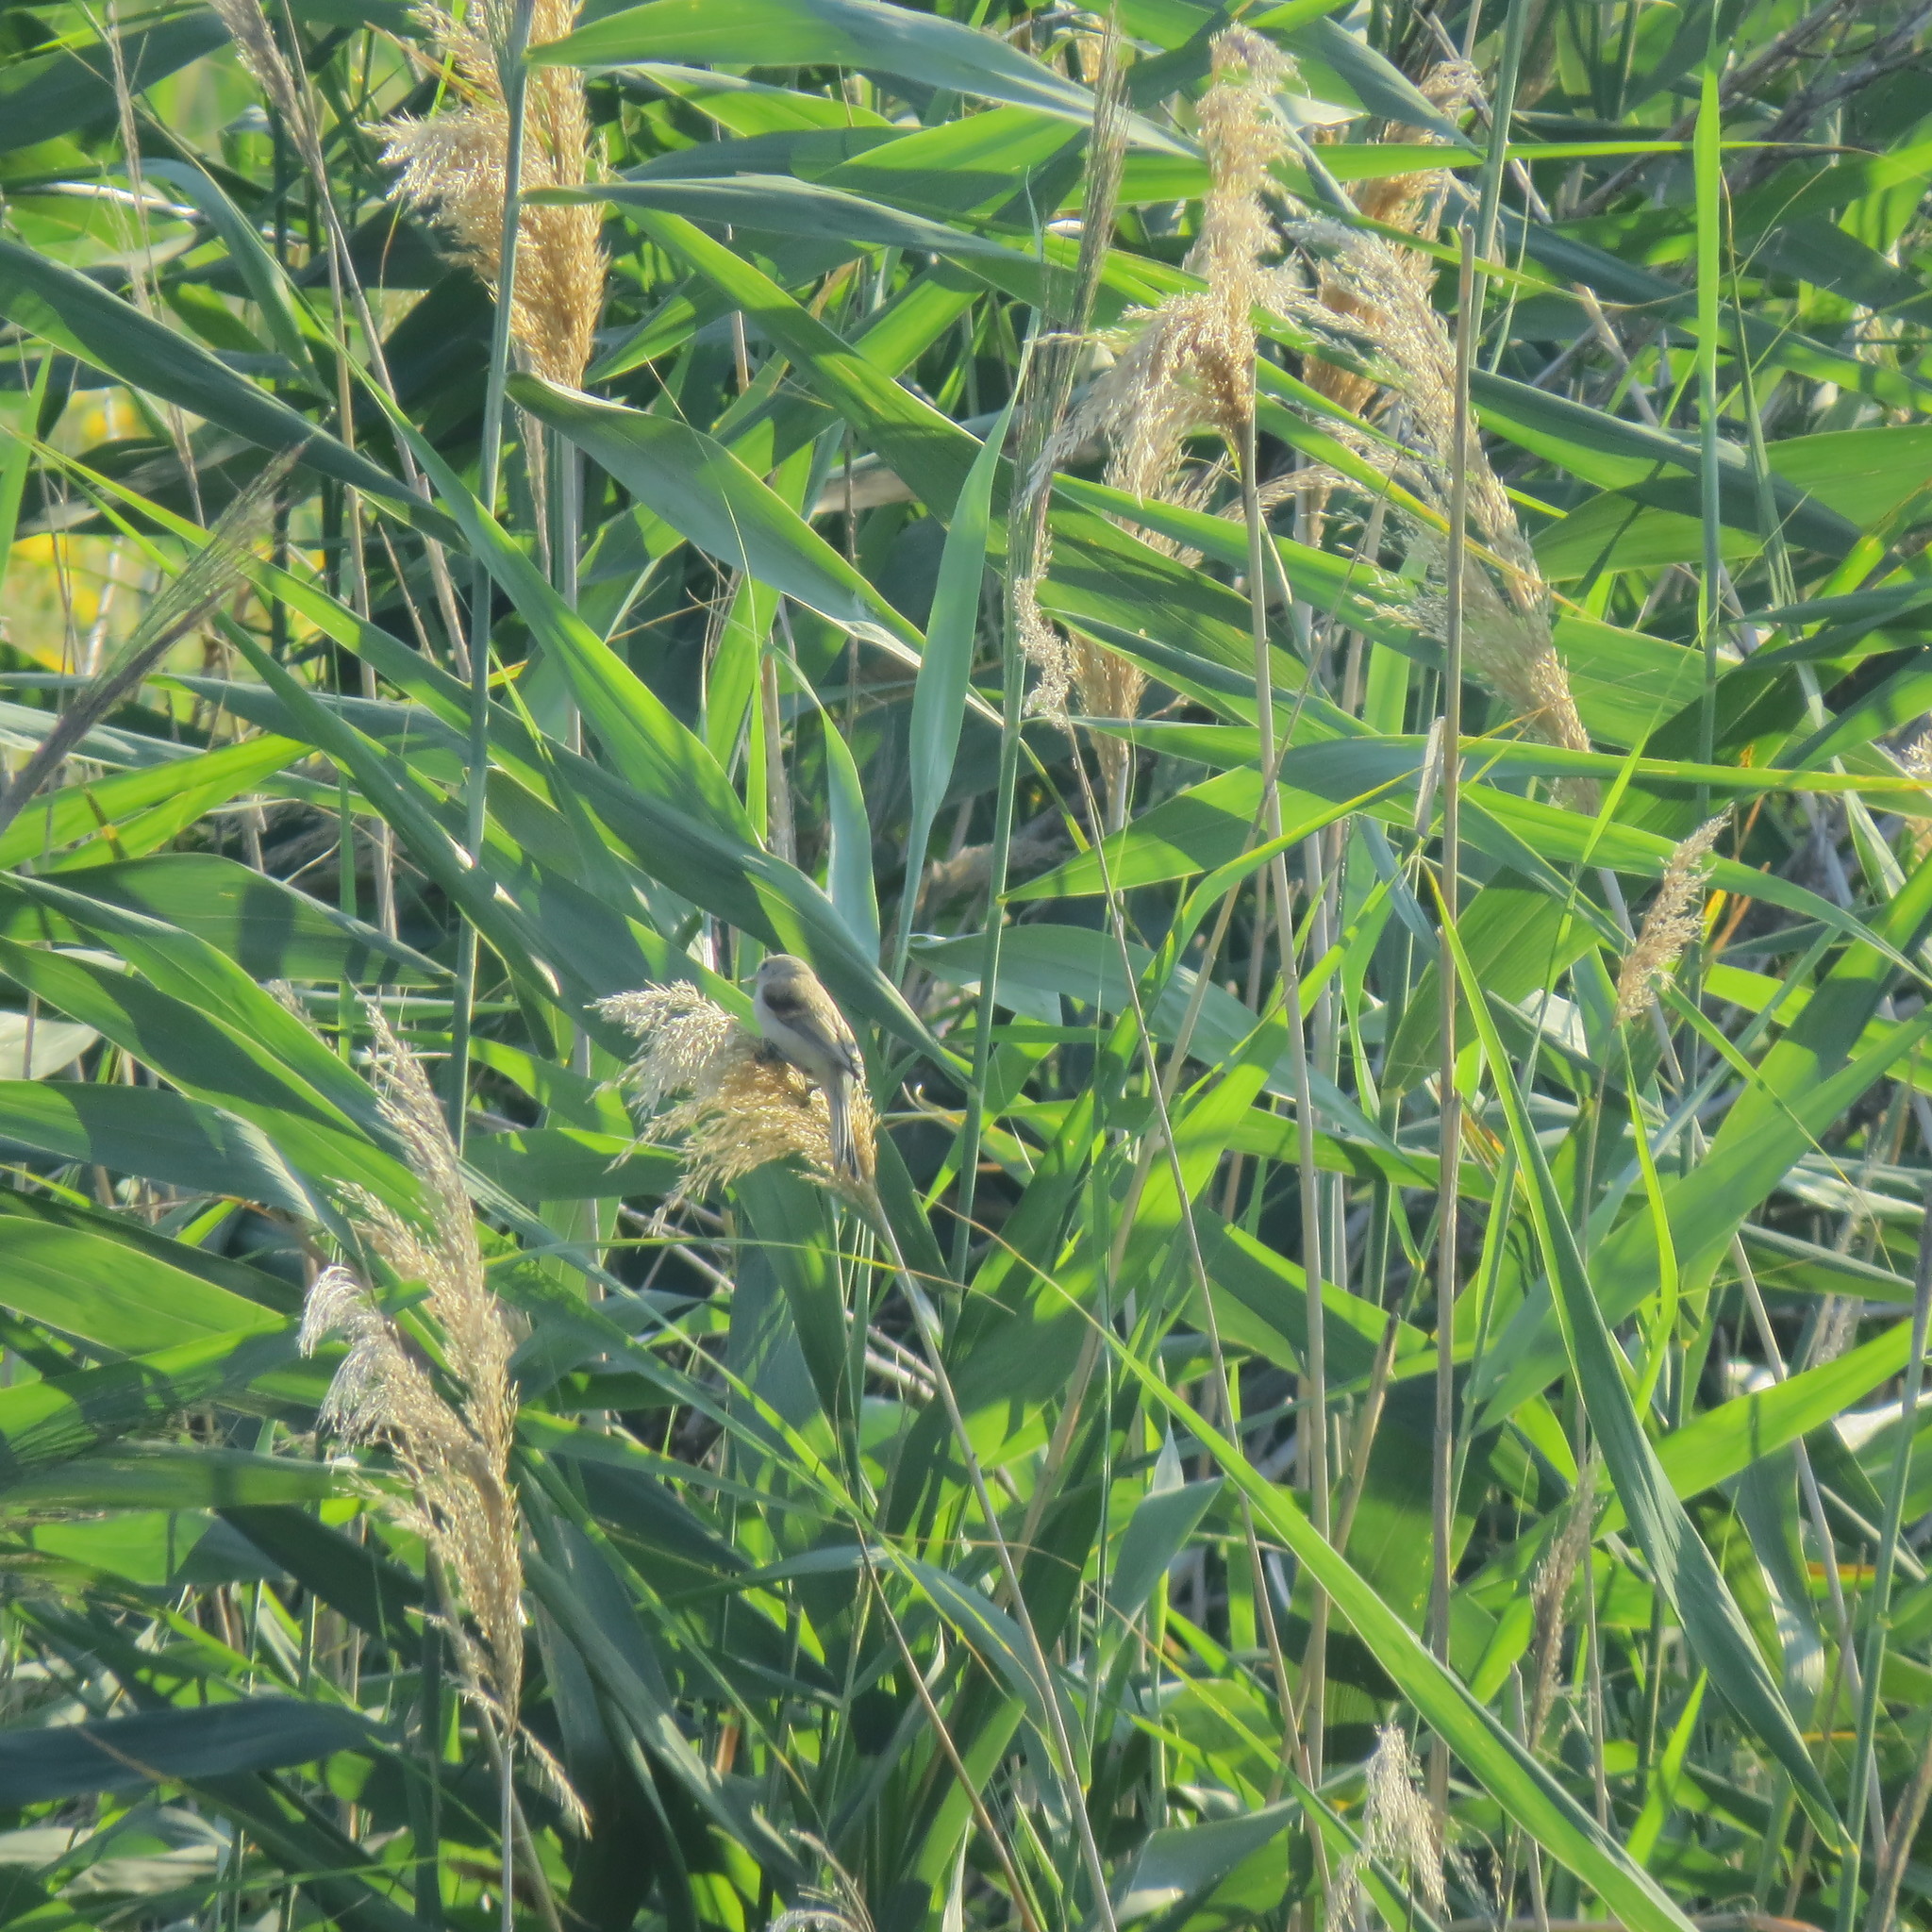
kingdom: Animalia
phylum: Chordata
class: Aves
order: Passeriformes
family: Remizidae
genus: Remiz
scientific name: Remiz pendulinus
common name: Eurasian penduline tit
